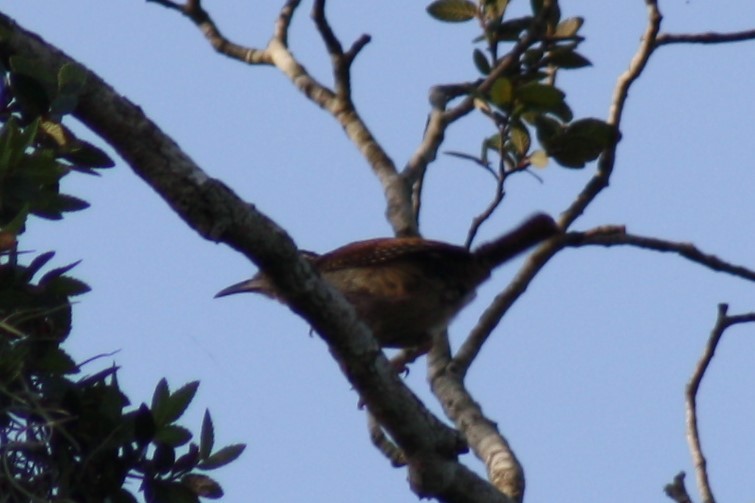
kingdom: Animalia
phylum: Chordata
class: Aves
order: Passeriformes
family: Troglodytidae
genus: Thryothorus
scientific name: Thryothorus ludovicianus
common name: Carolina wren
